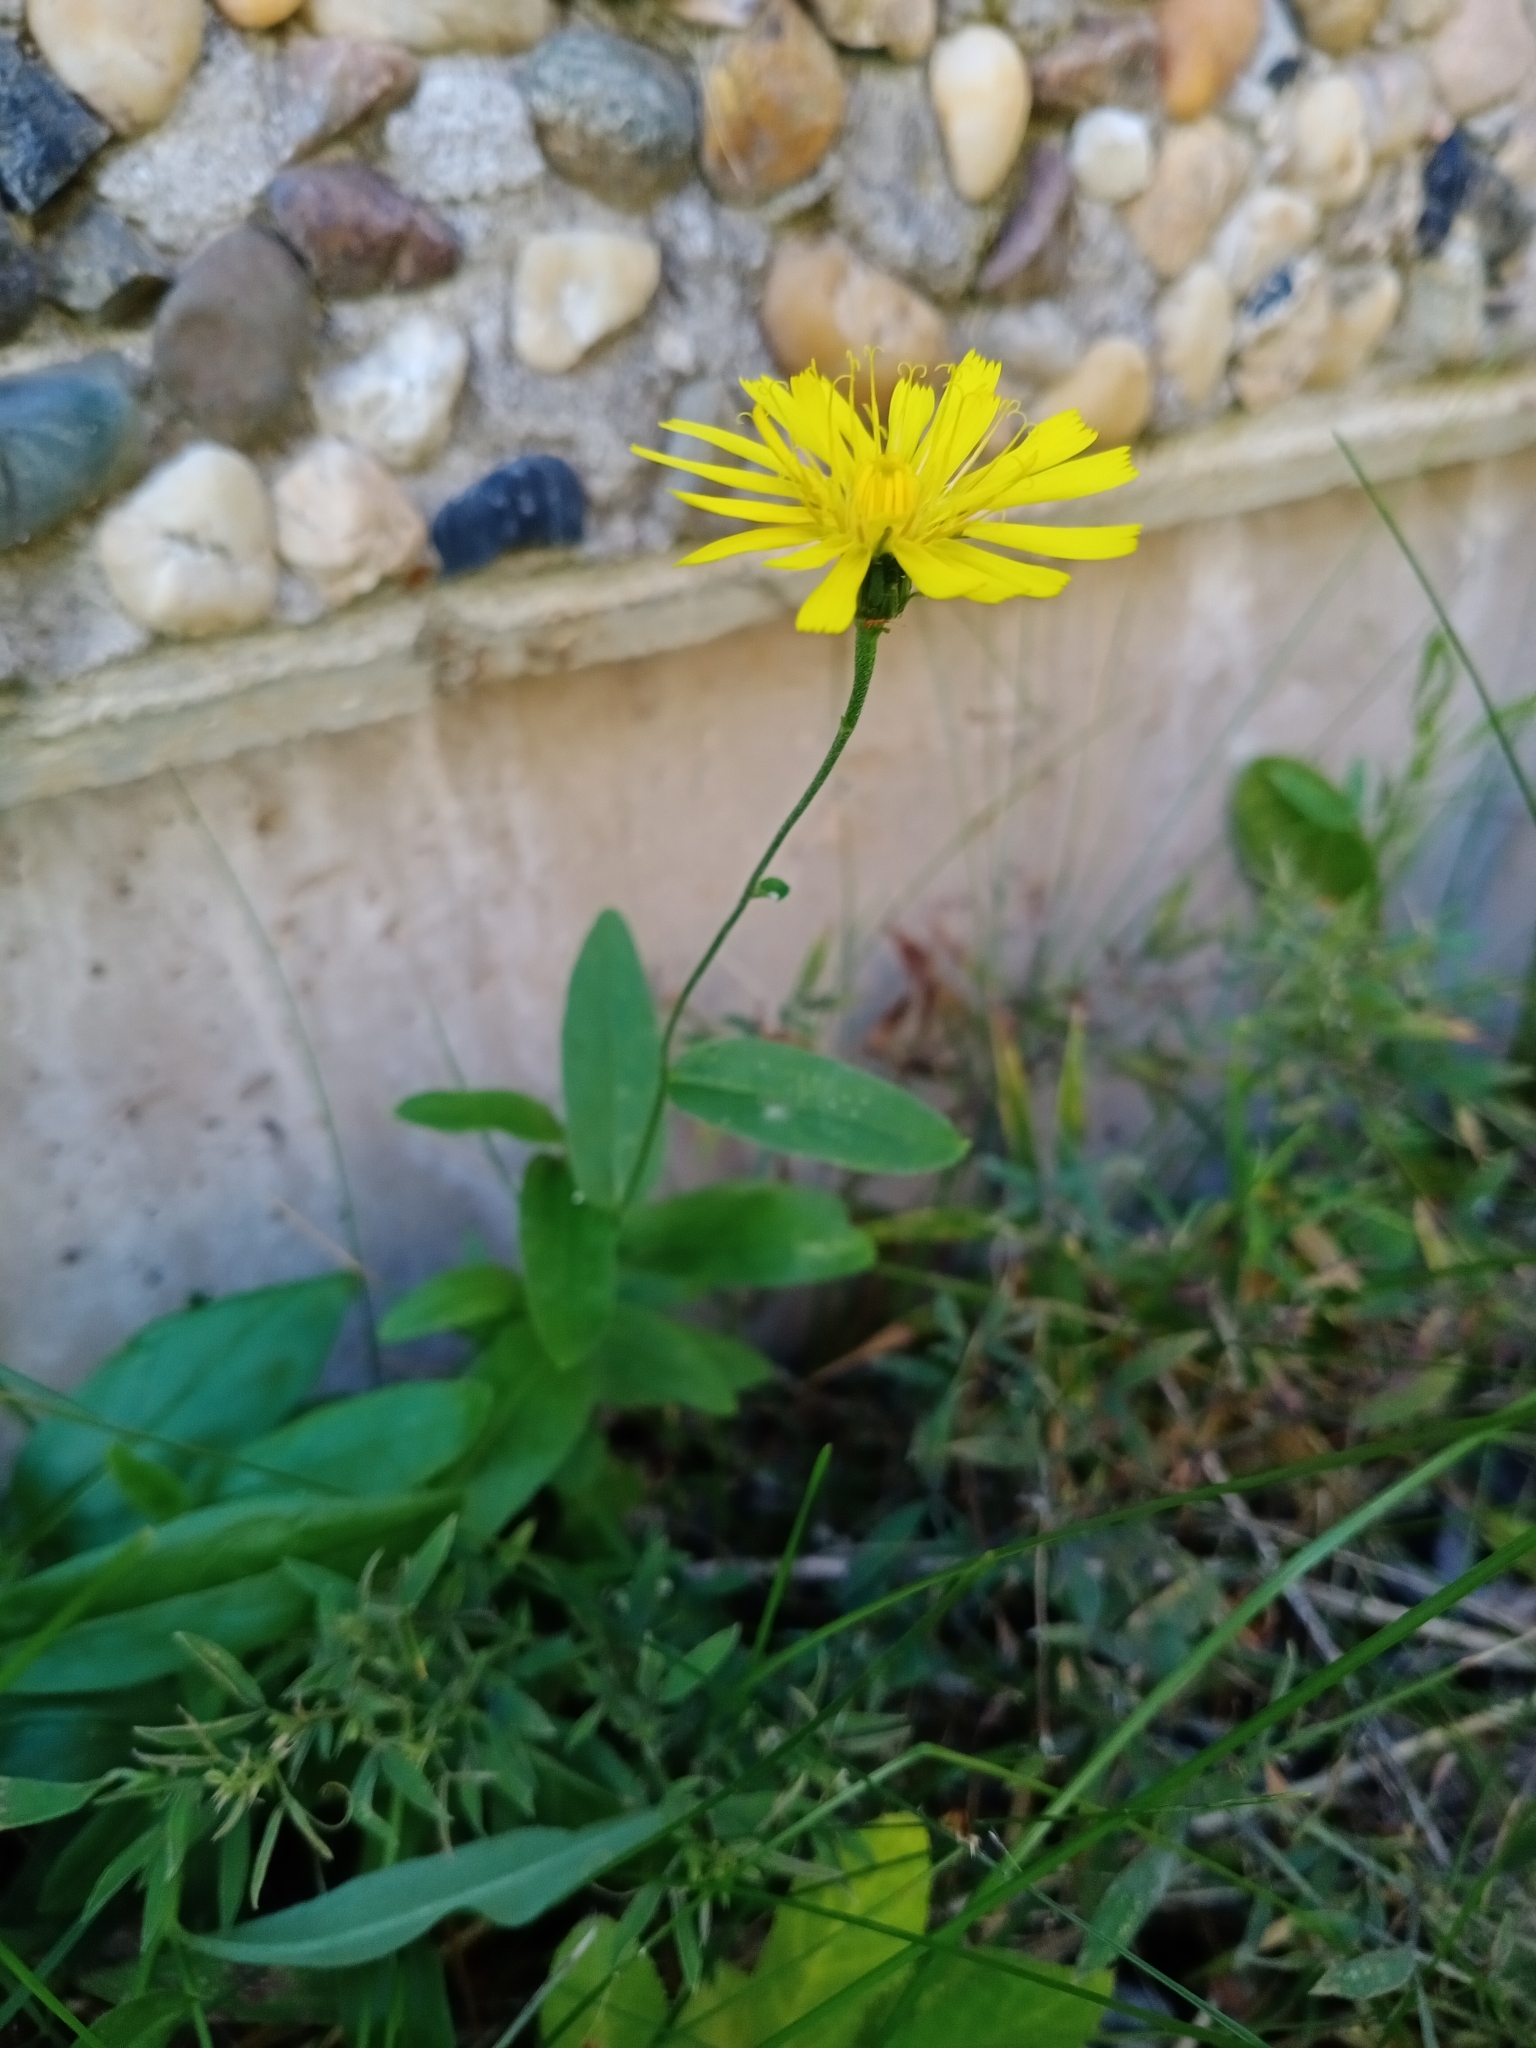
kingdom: Plantae
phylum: Tracheophyta
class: Magnoliopsida
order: Asterales
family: Asteraceae
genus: Hieracium
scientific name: Hieracium umbellatum
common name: Northern hawkweed
